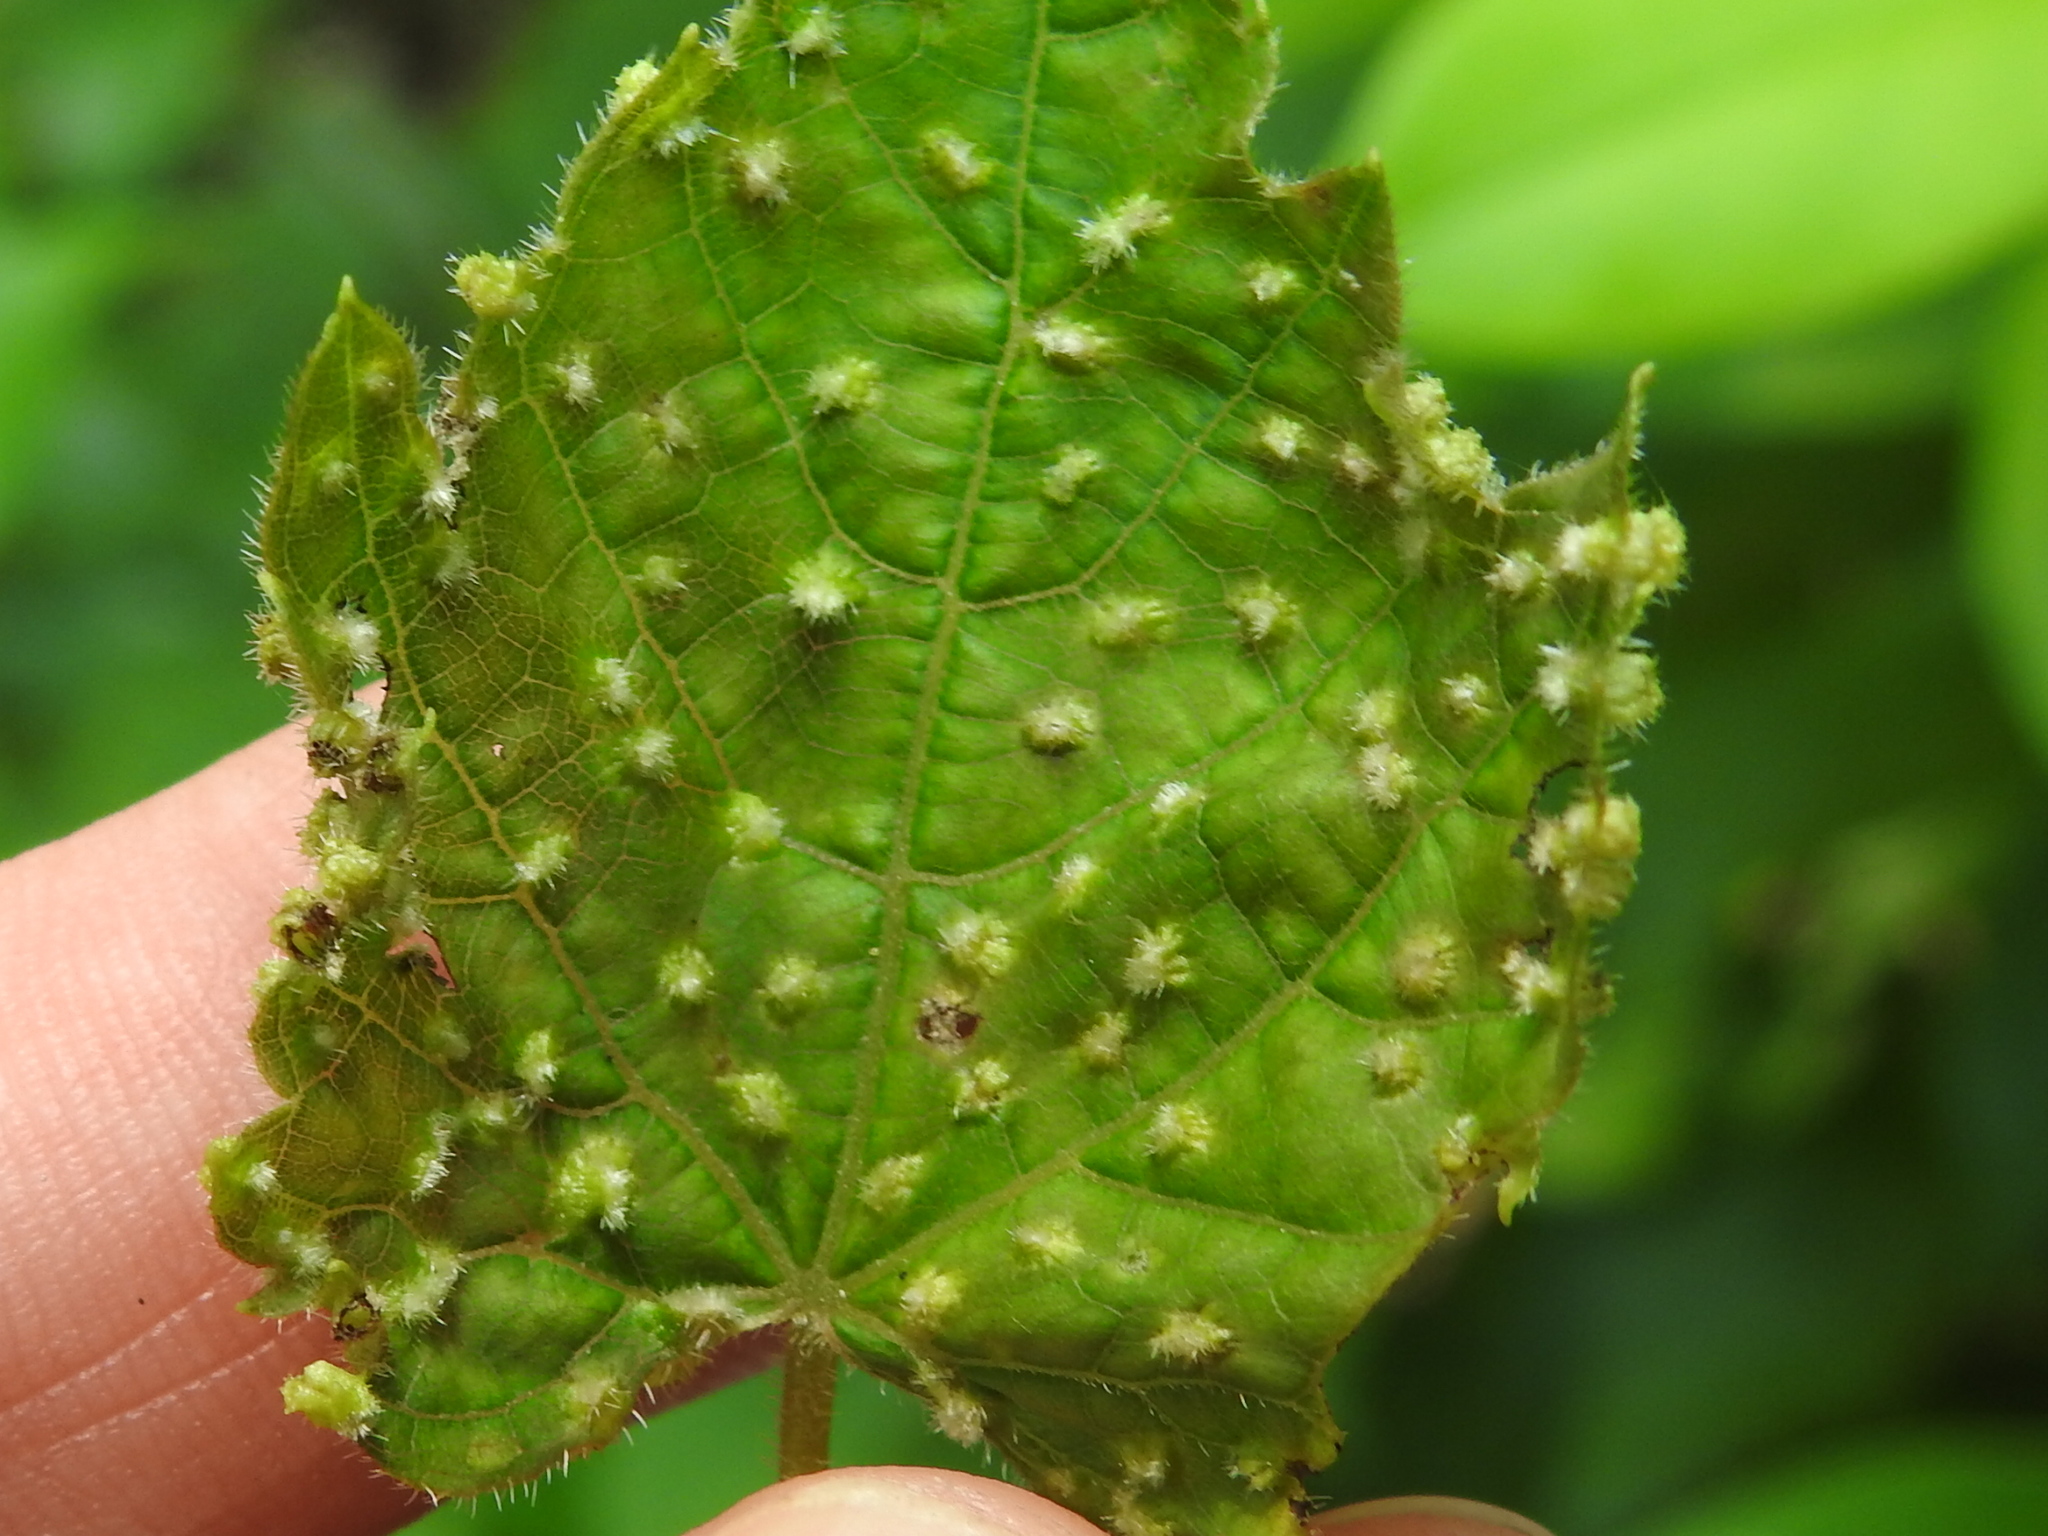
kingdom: Animalia
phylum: Arthropoda
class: Insecta
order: Hemiptera
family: Phylloxeridae
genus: Daktulosphaira
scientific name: Daktulosphaira vitifoliae
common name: Grape phylloxera
